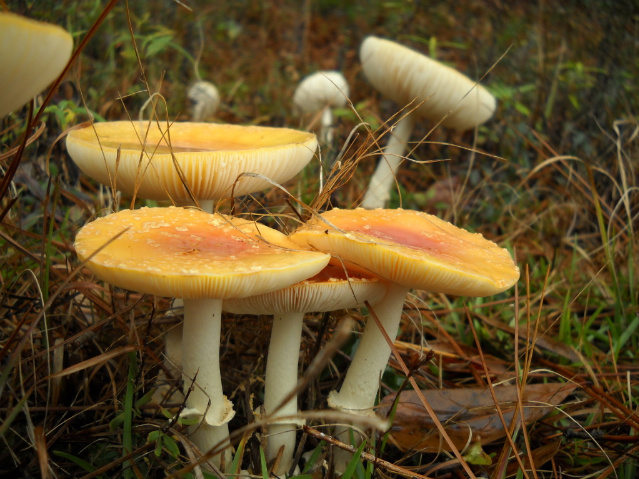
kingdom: Fungi
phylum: Basidiomycota
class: Agaricomycetes
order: Agaricales
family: Amanitaceae
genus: Amanita
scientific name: Amanita persicina
